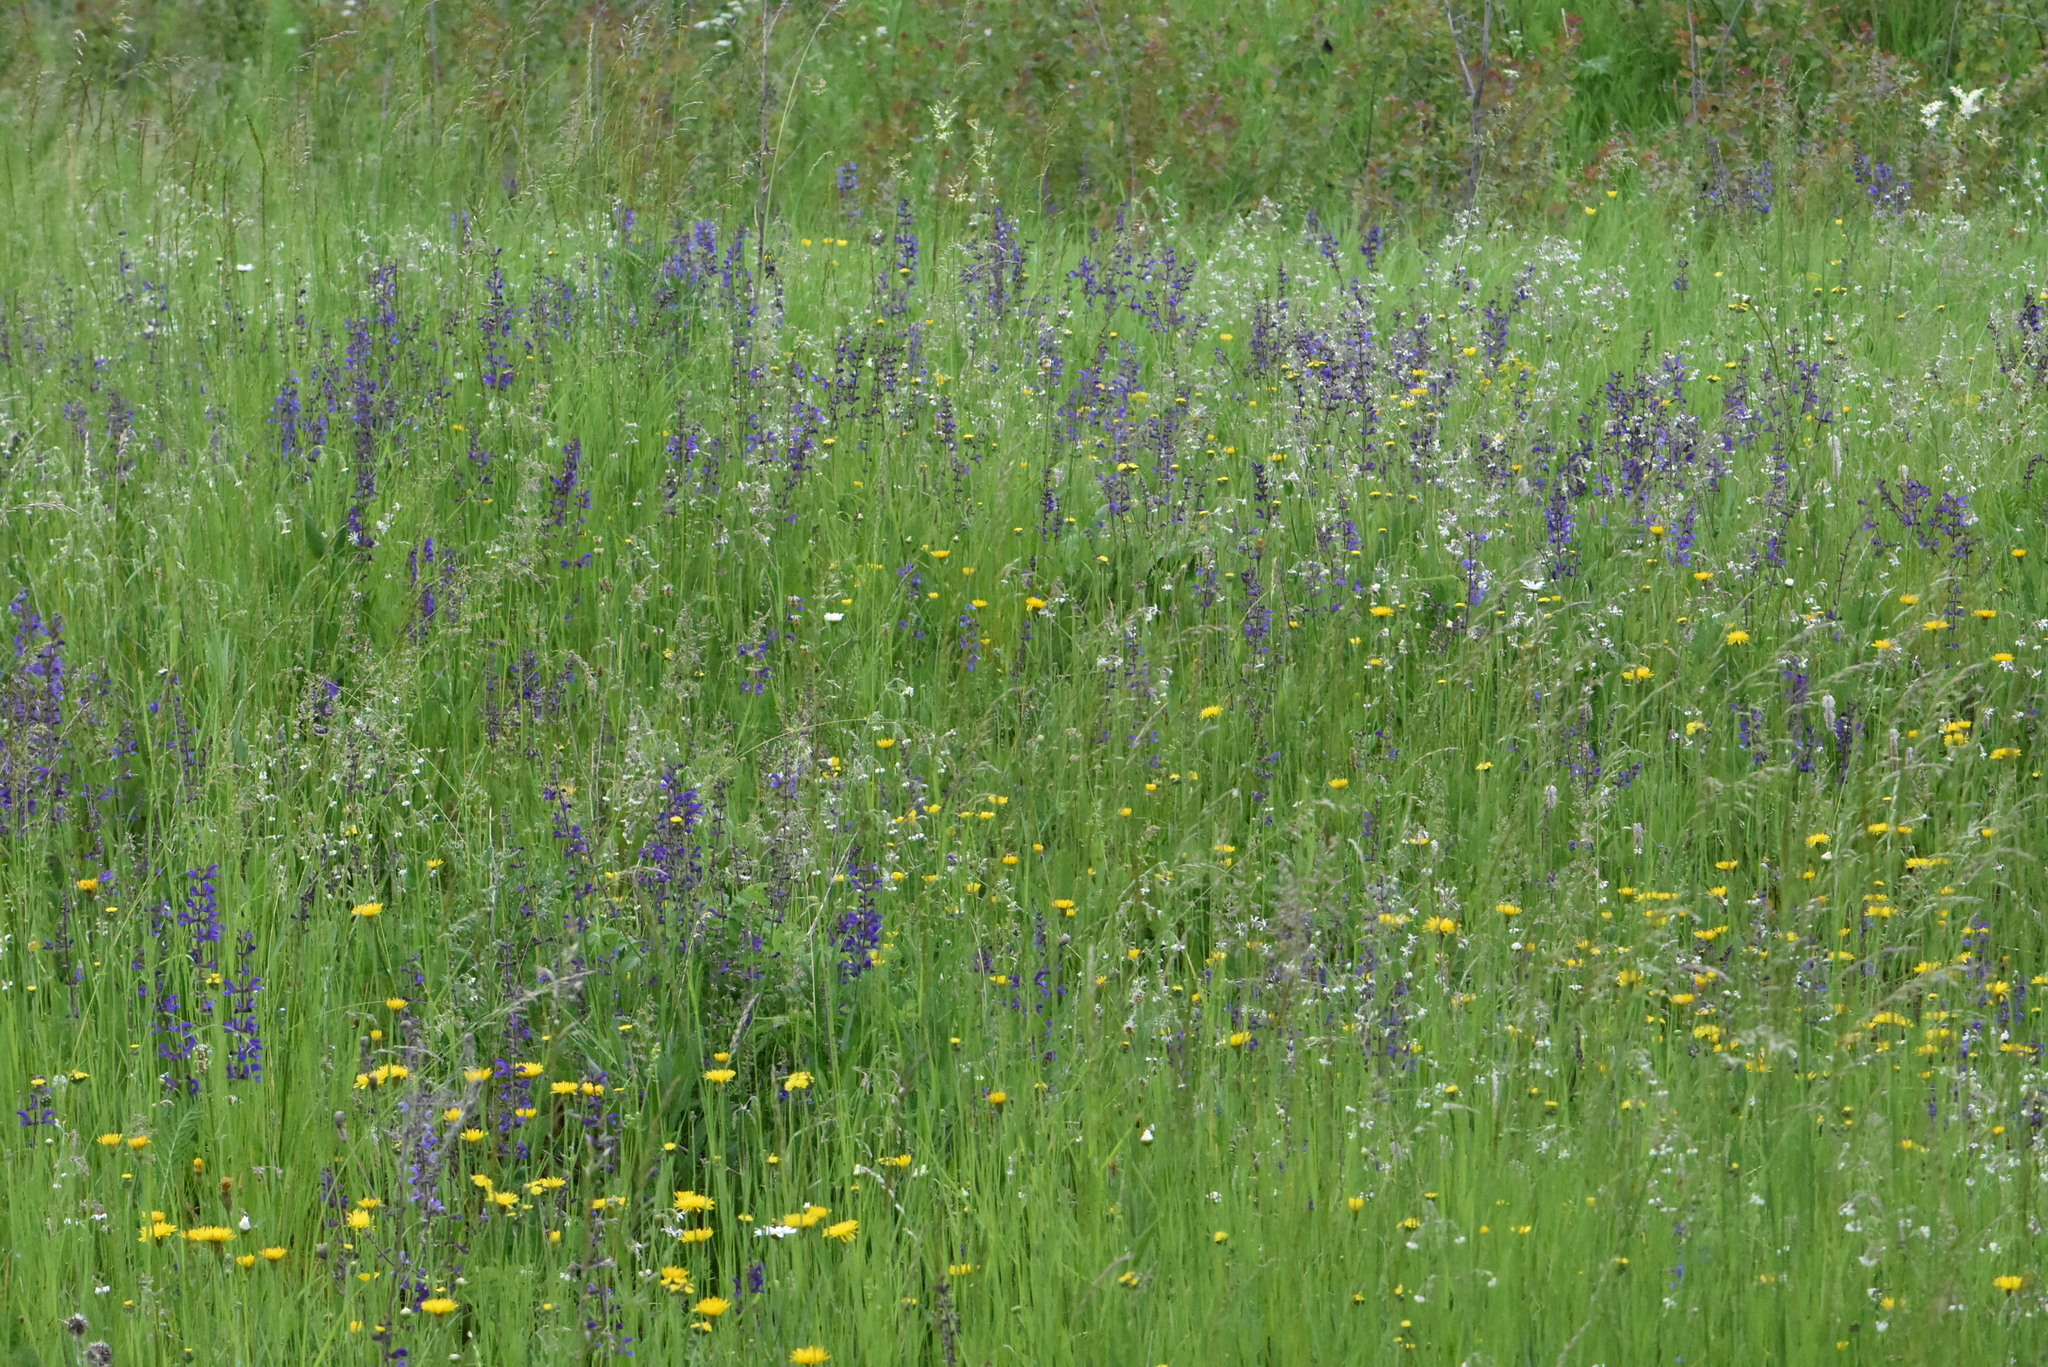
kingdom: Plantae
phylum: Tracheophyta
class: Magnoliopsida
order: Lamiales
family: Lamiaceae
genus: Salvia
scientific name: Salvia pratensis
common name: Meadow sage
